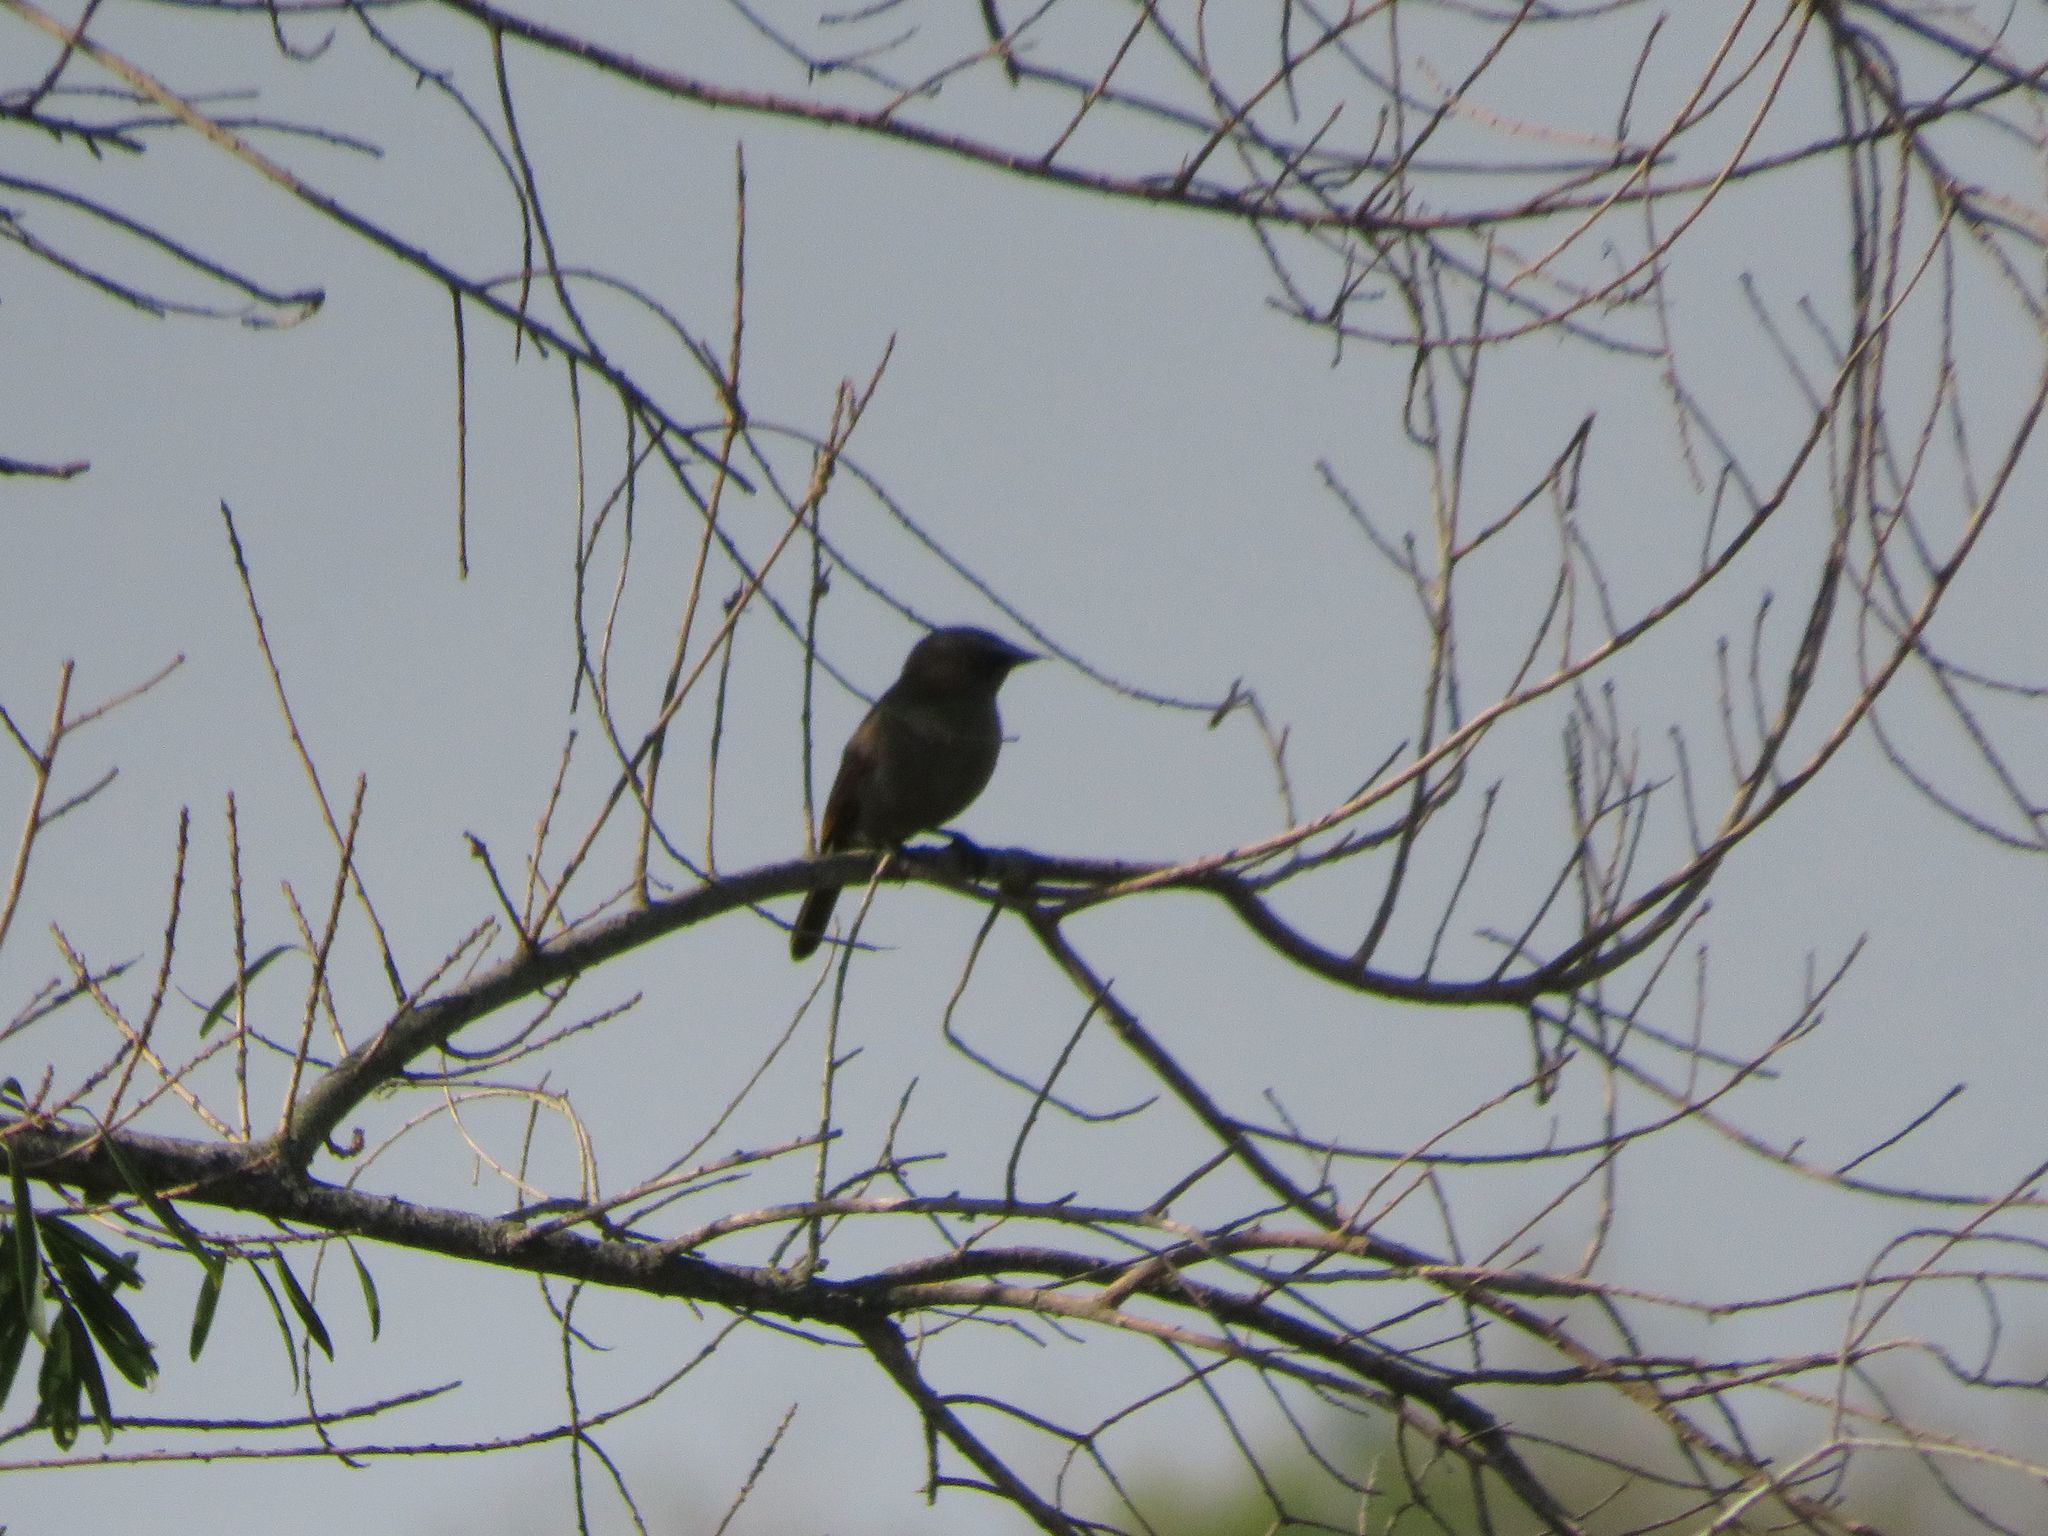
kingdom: Animalia
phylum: Chordata
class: Aves
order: Passeriformes
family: Icteridae
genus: Agelaioides
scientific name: Agelaioides badius
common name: Baywing
